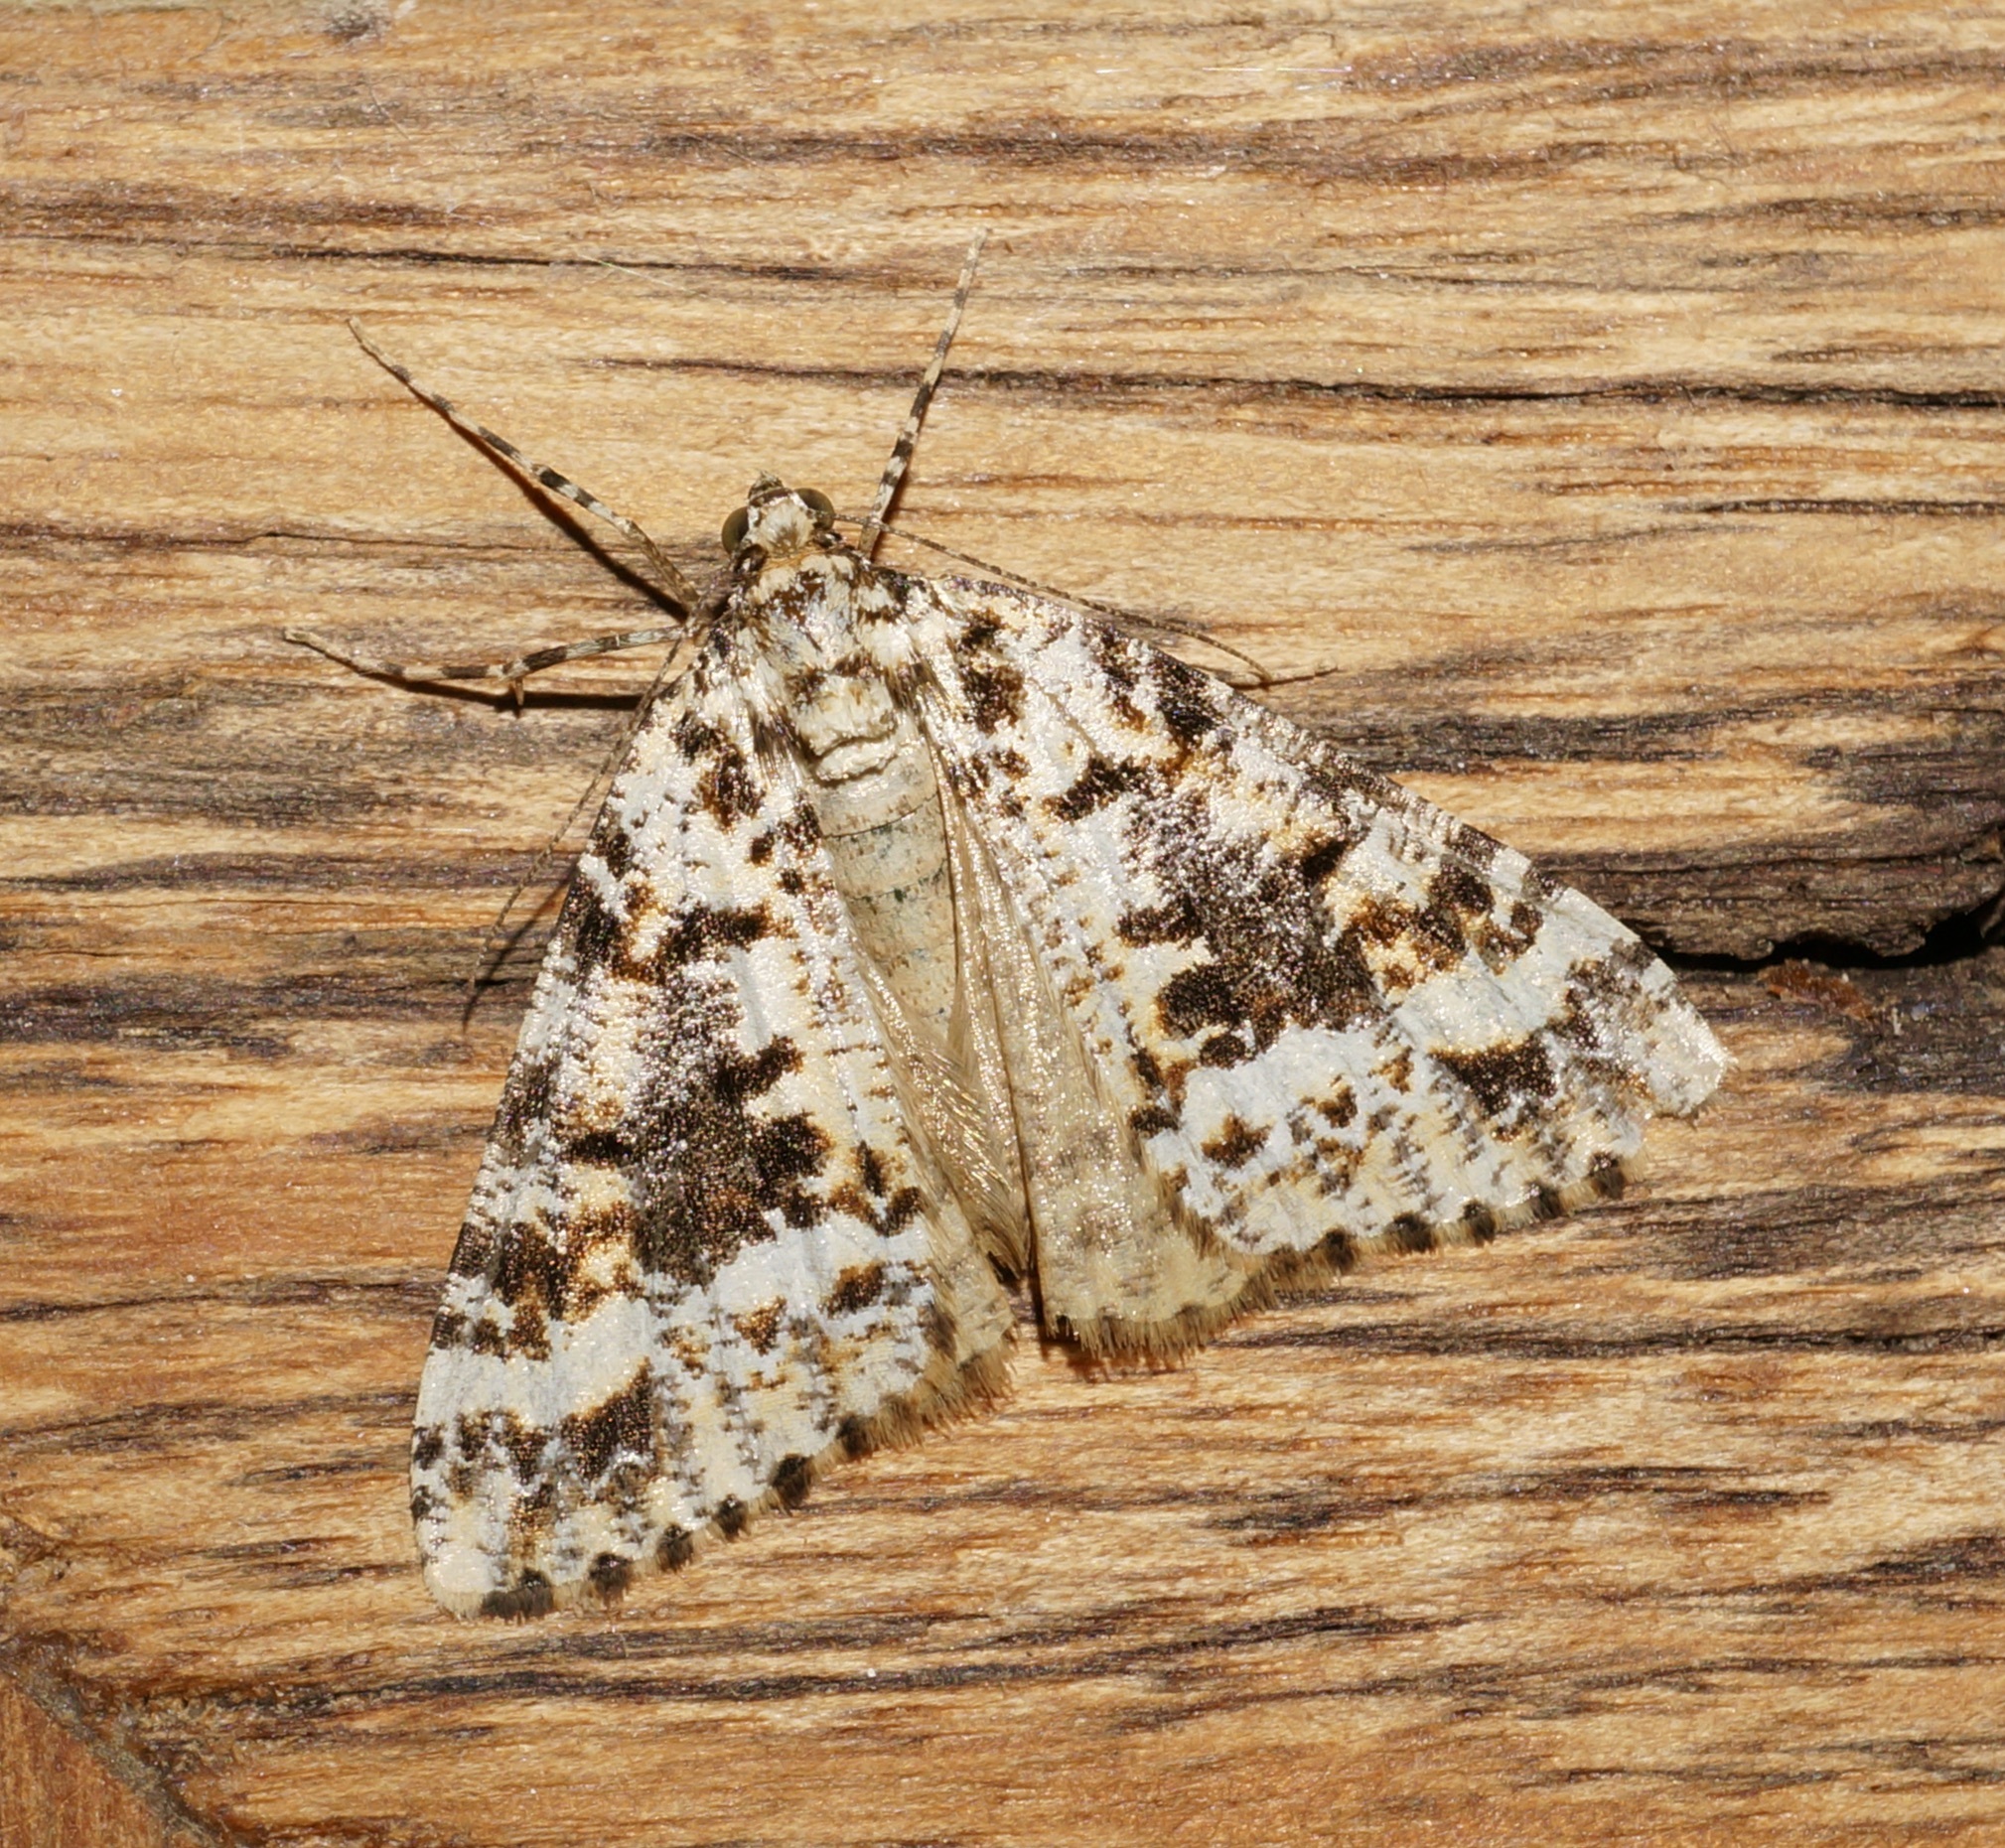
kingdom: Animalia
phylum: Arthropoda
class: Insecta
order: Lepidoptera
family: Geometridae
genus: Pseudocoremia
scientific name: Pseudocoremia leucelaea
